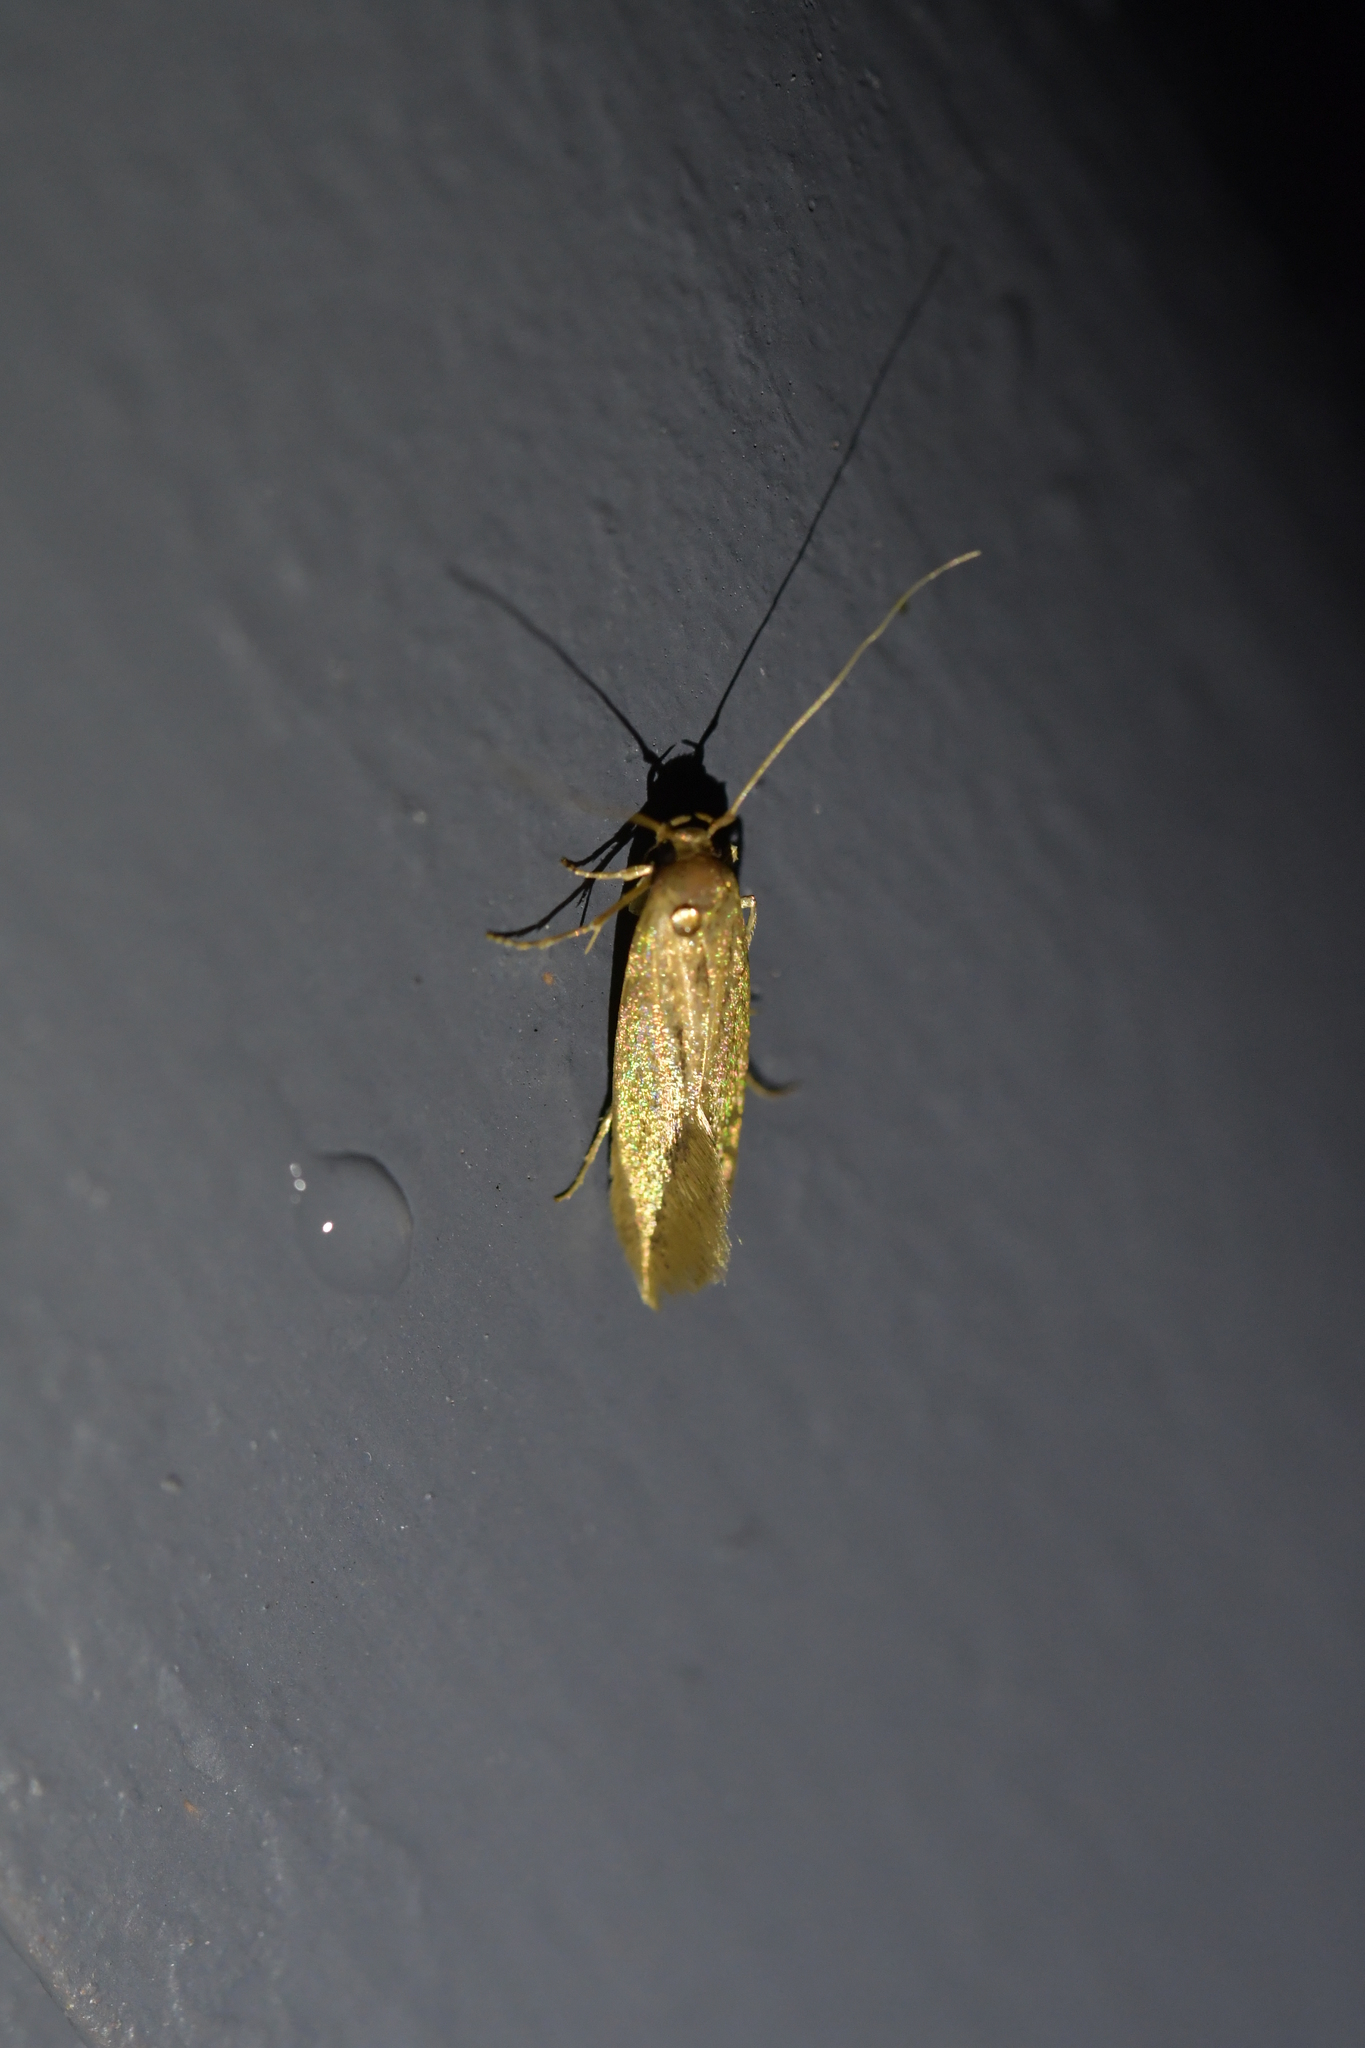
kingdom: Animalia
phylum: Arthropoda
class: Insecta
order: Lepidoptera
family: Tineidae
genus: Opogona
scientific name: Opogona omoscopa
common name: Moth
